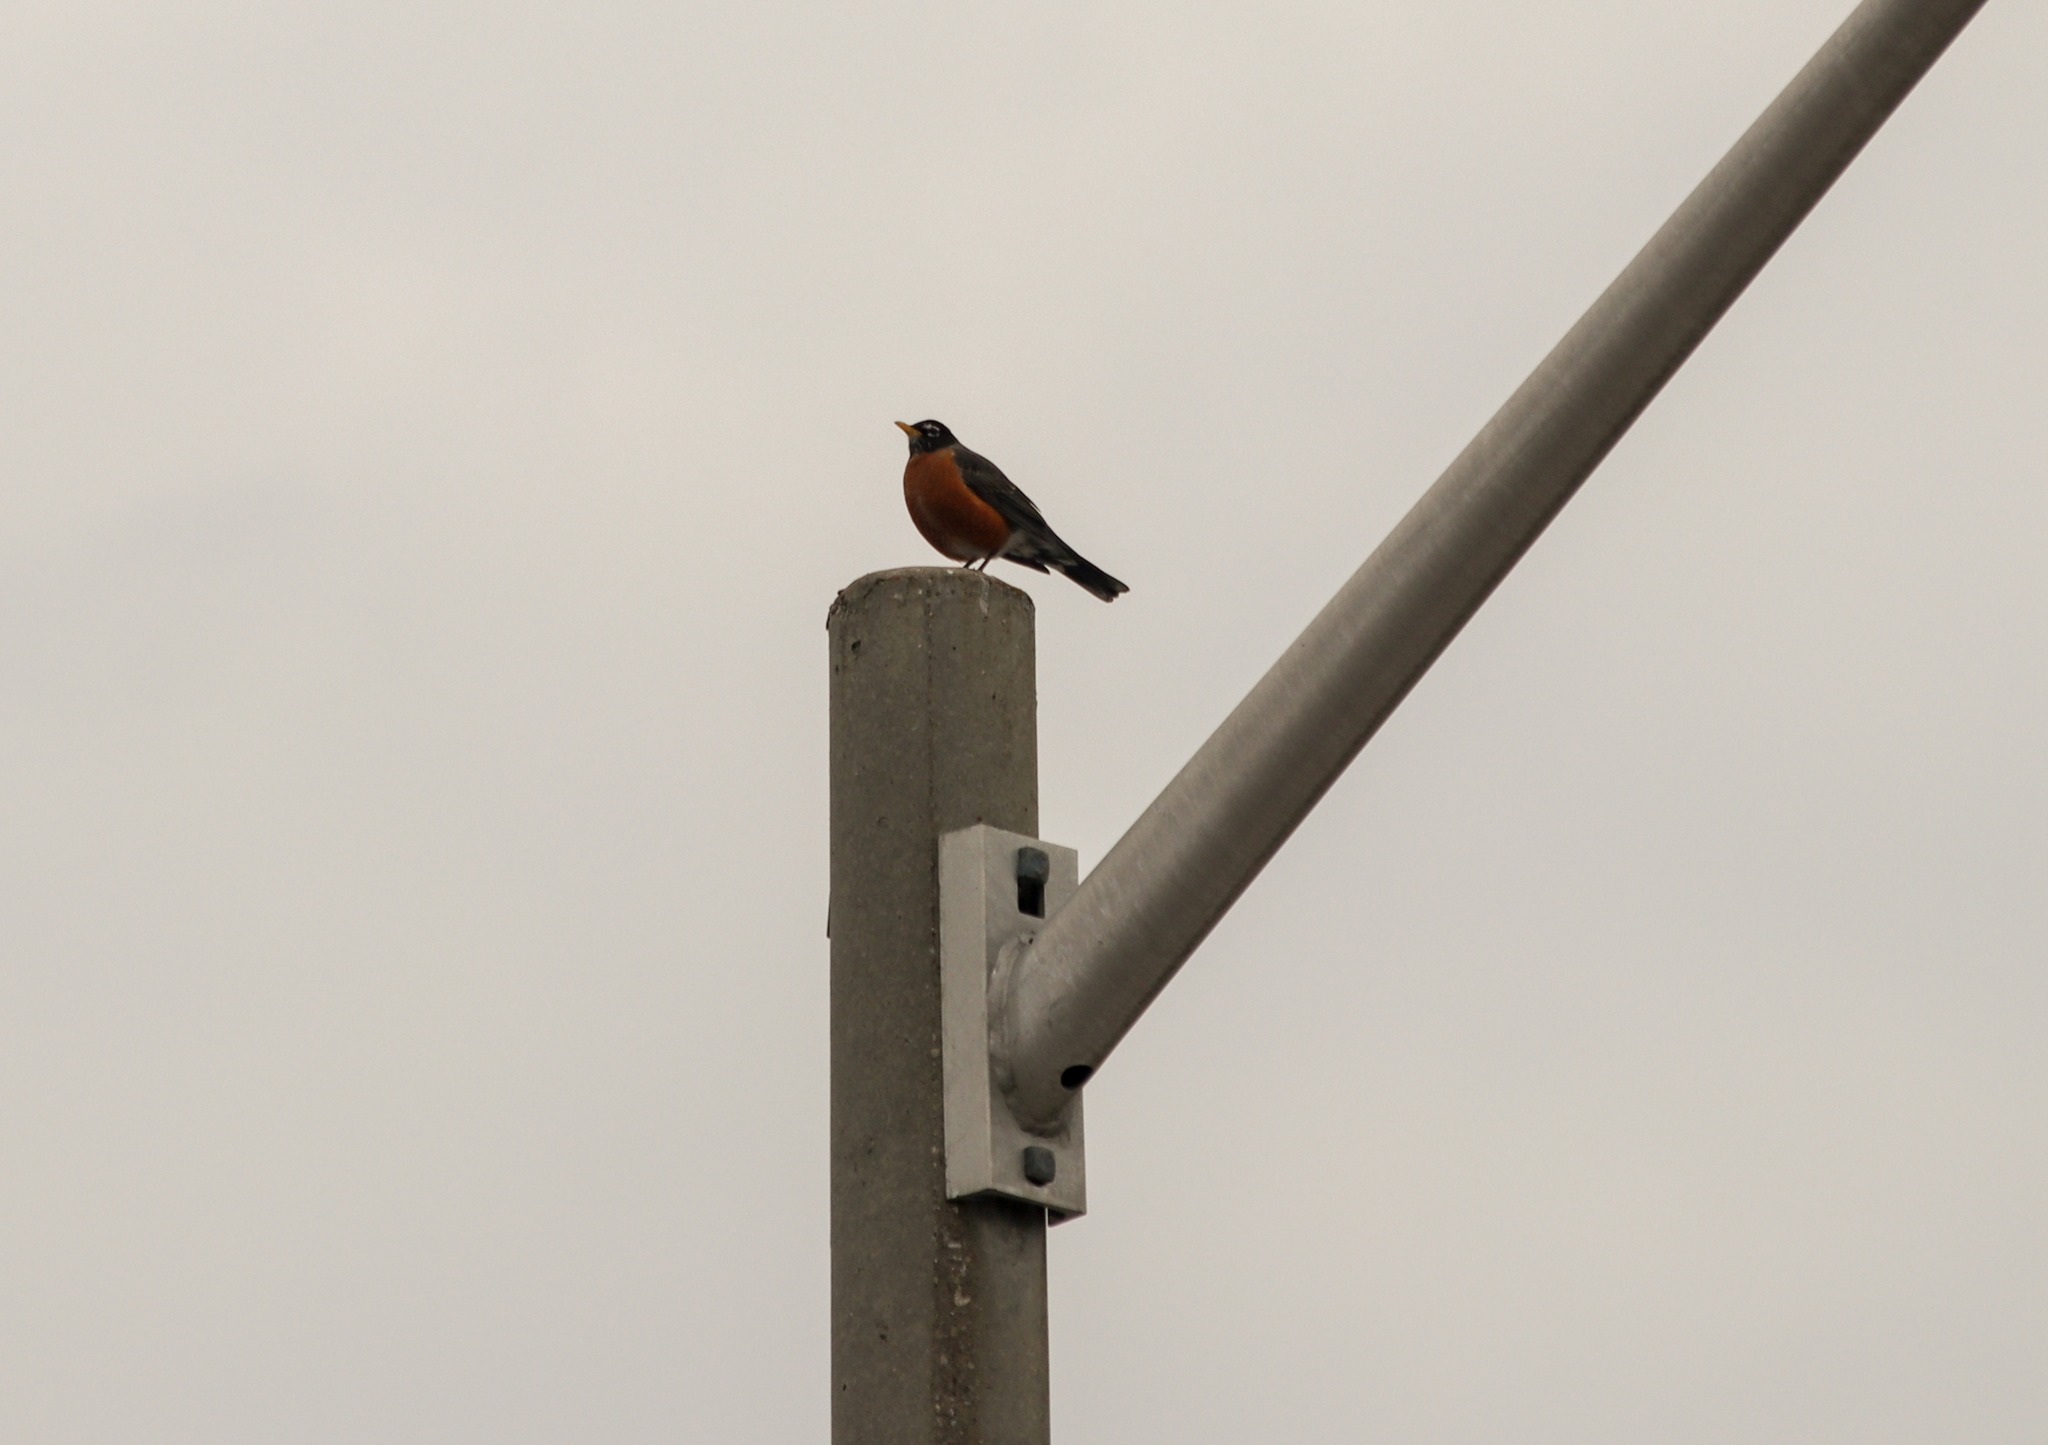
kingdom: Animalia
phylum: Chordata
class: Aves
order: Passeriformes
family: Turdidae
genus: Turdus
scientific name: Turdus migratorius
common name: American robin
